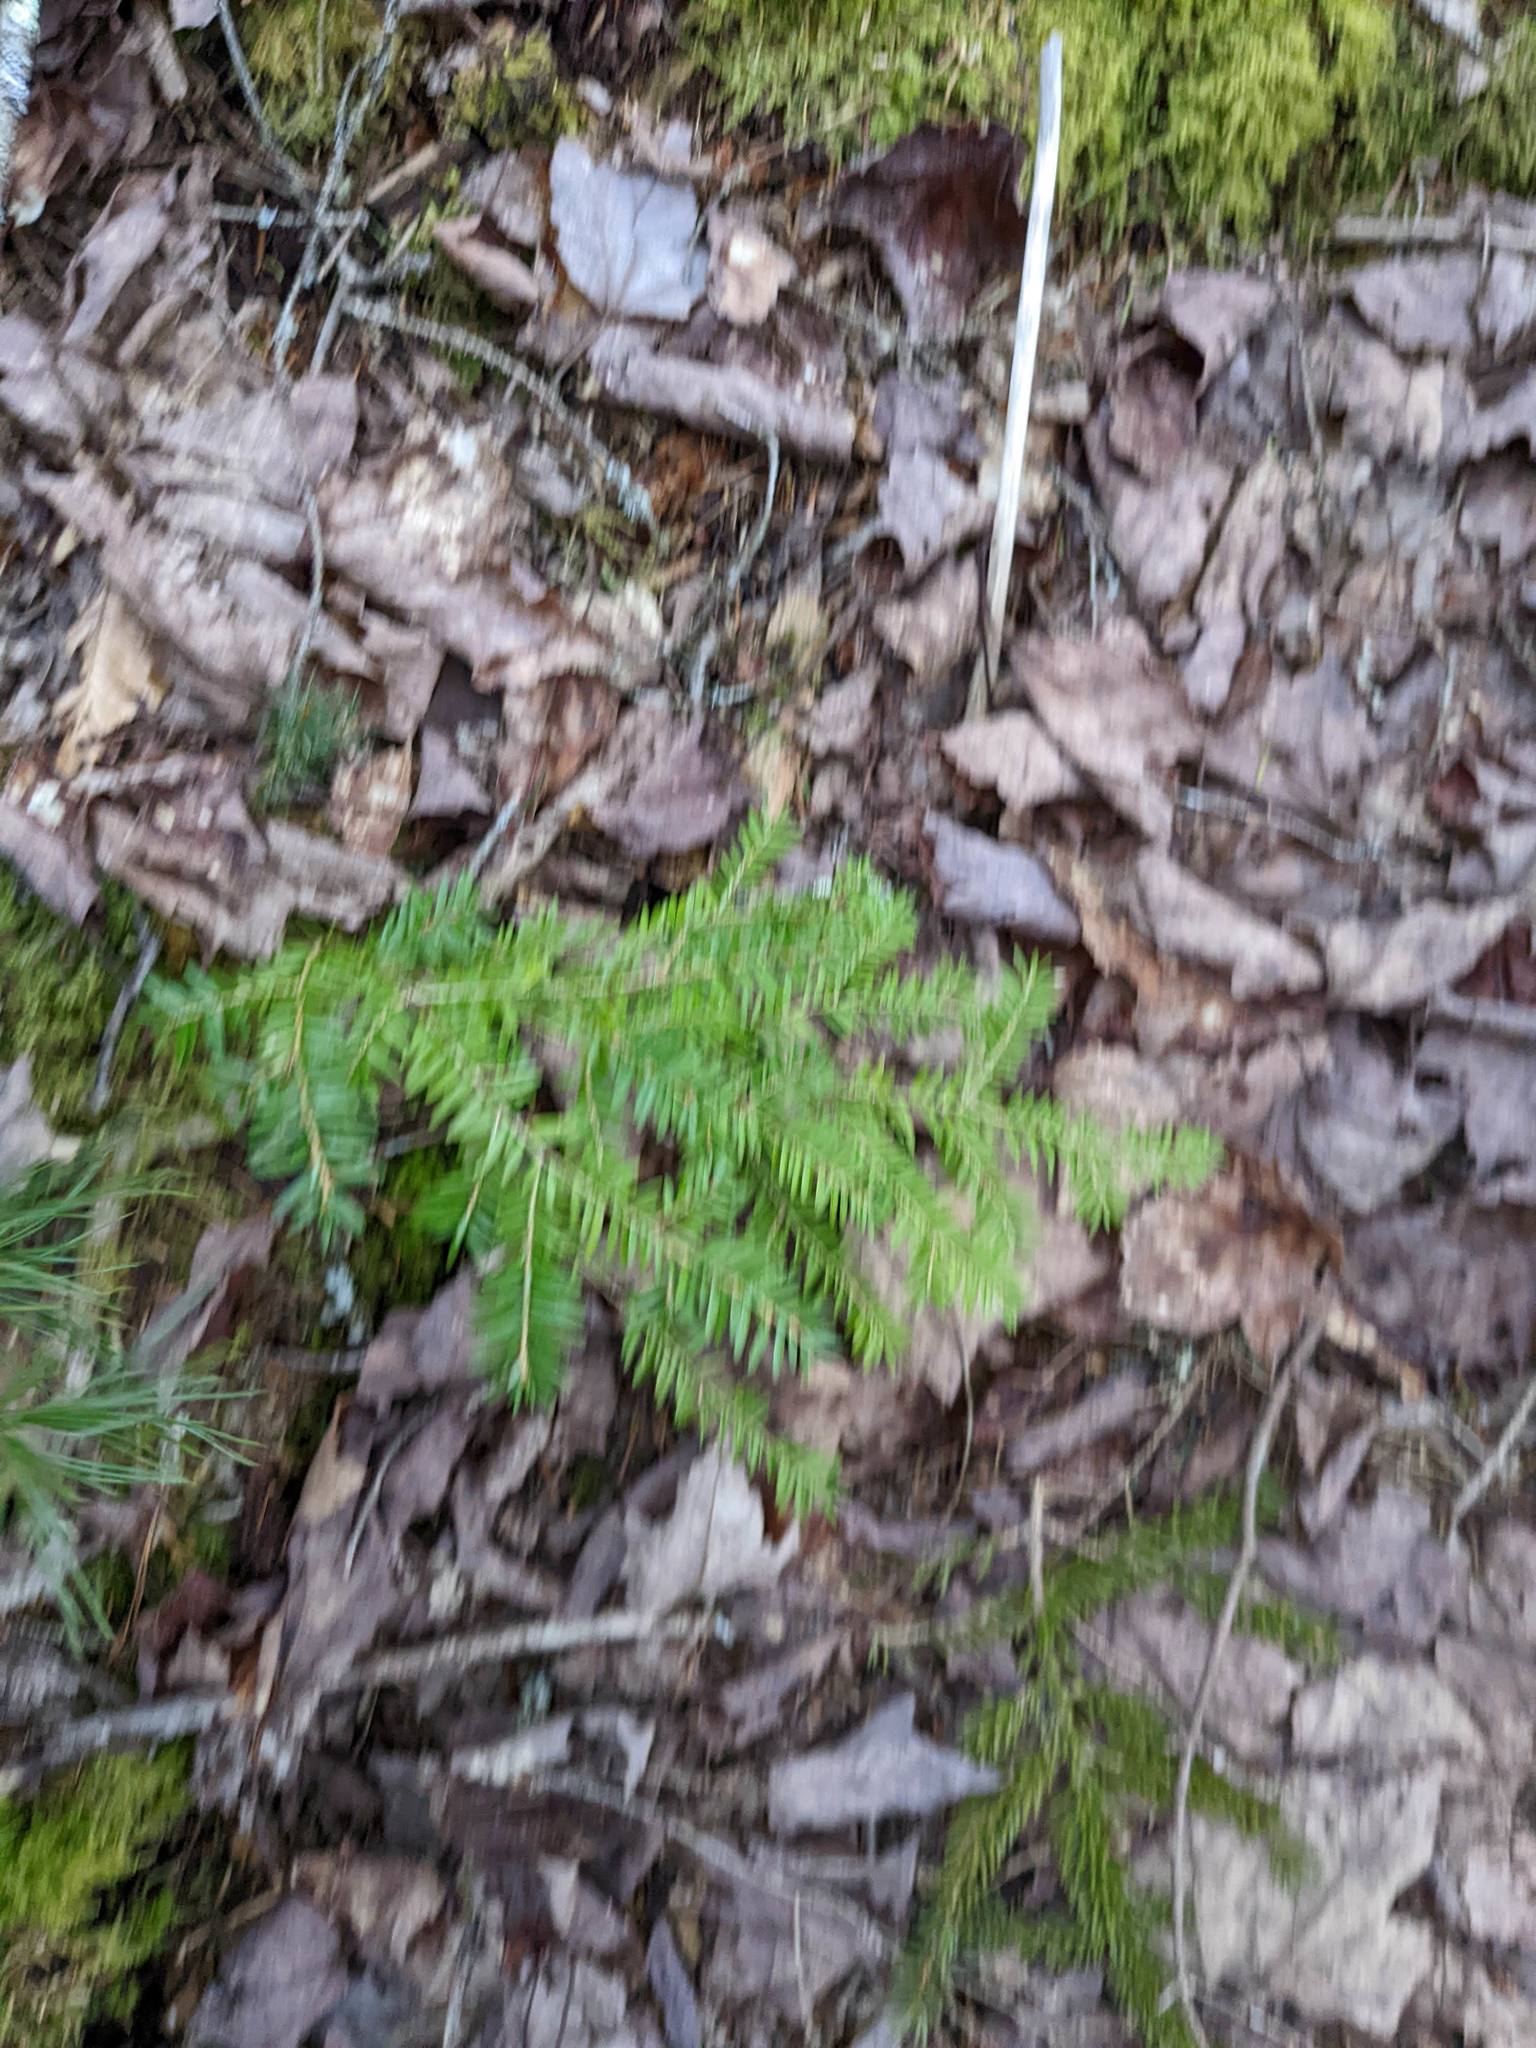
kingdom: Plantae
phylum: Tracheophyta
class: Pinopsida
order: Pinales
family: Pinaceae
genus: Tsuga
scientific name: Tsuga canadensis
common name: Eastern hemlock
